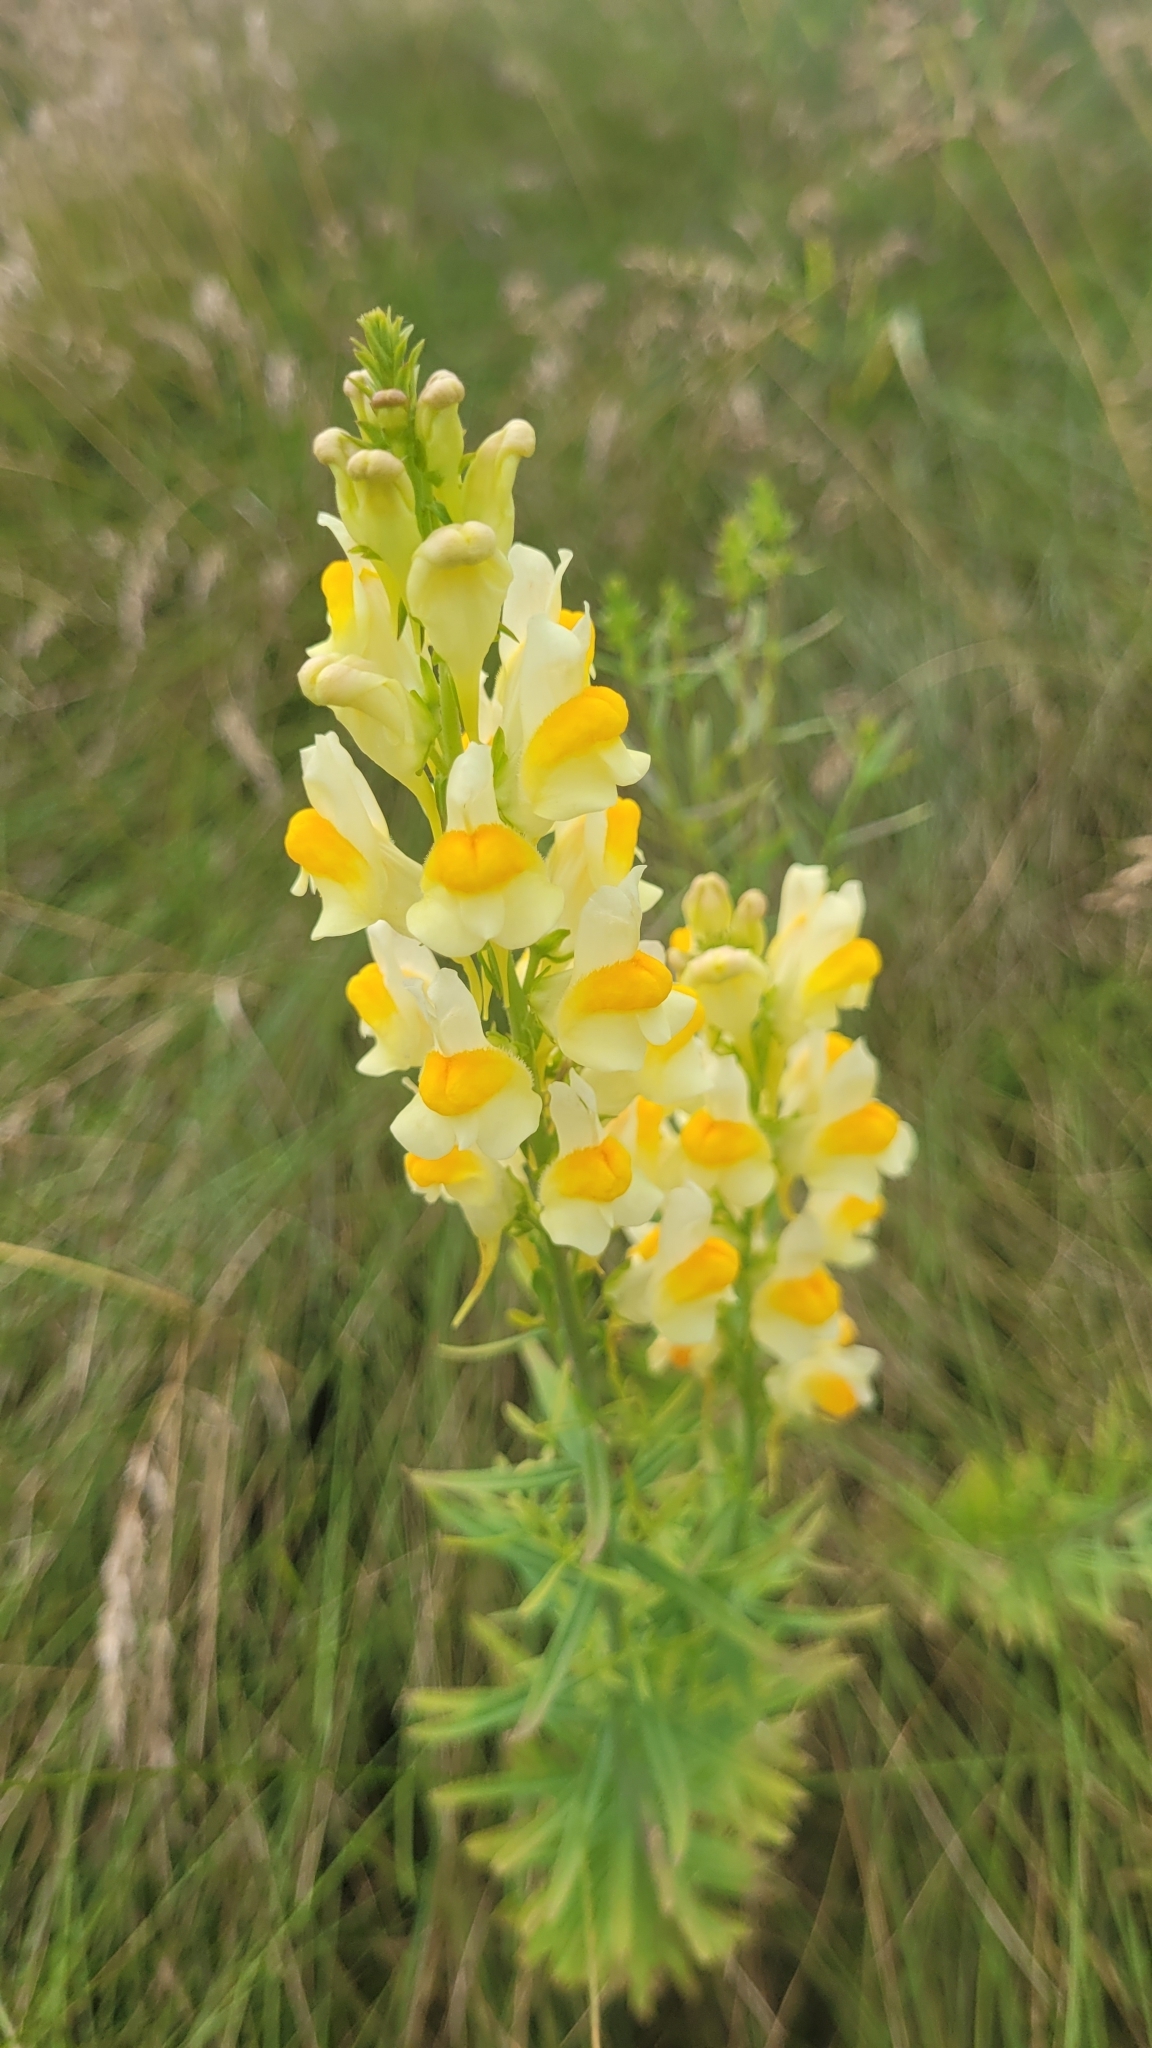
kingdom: Plantae
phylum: Tracheophyta
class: Magnoliopsida
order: Lamiales
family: Plantaginaceae
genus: Linaria
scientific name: Linaria vulgaris
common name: Butter and eggs
